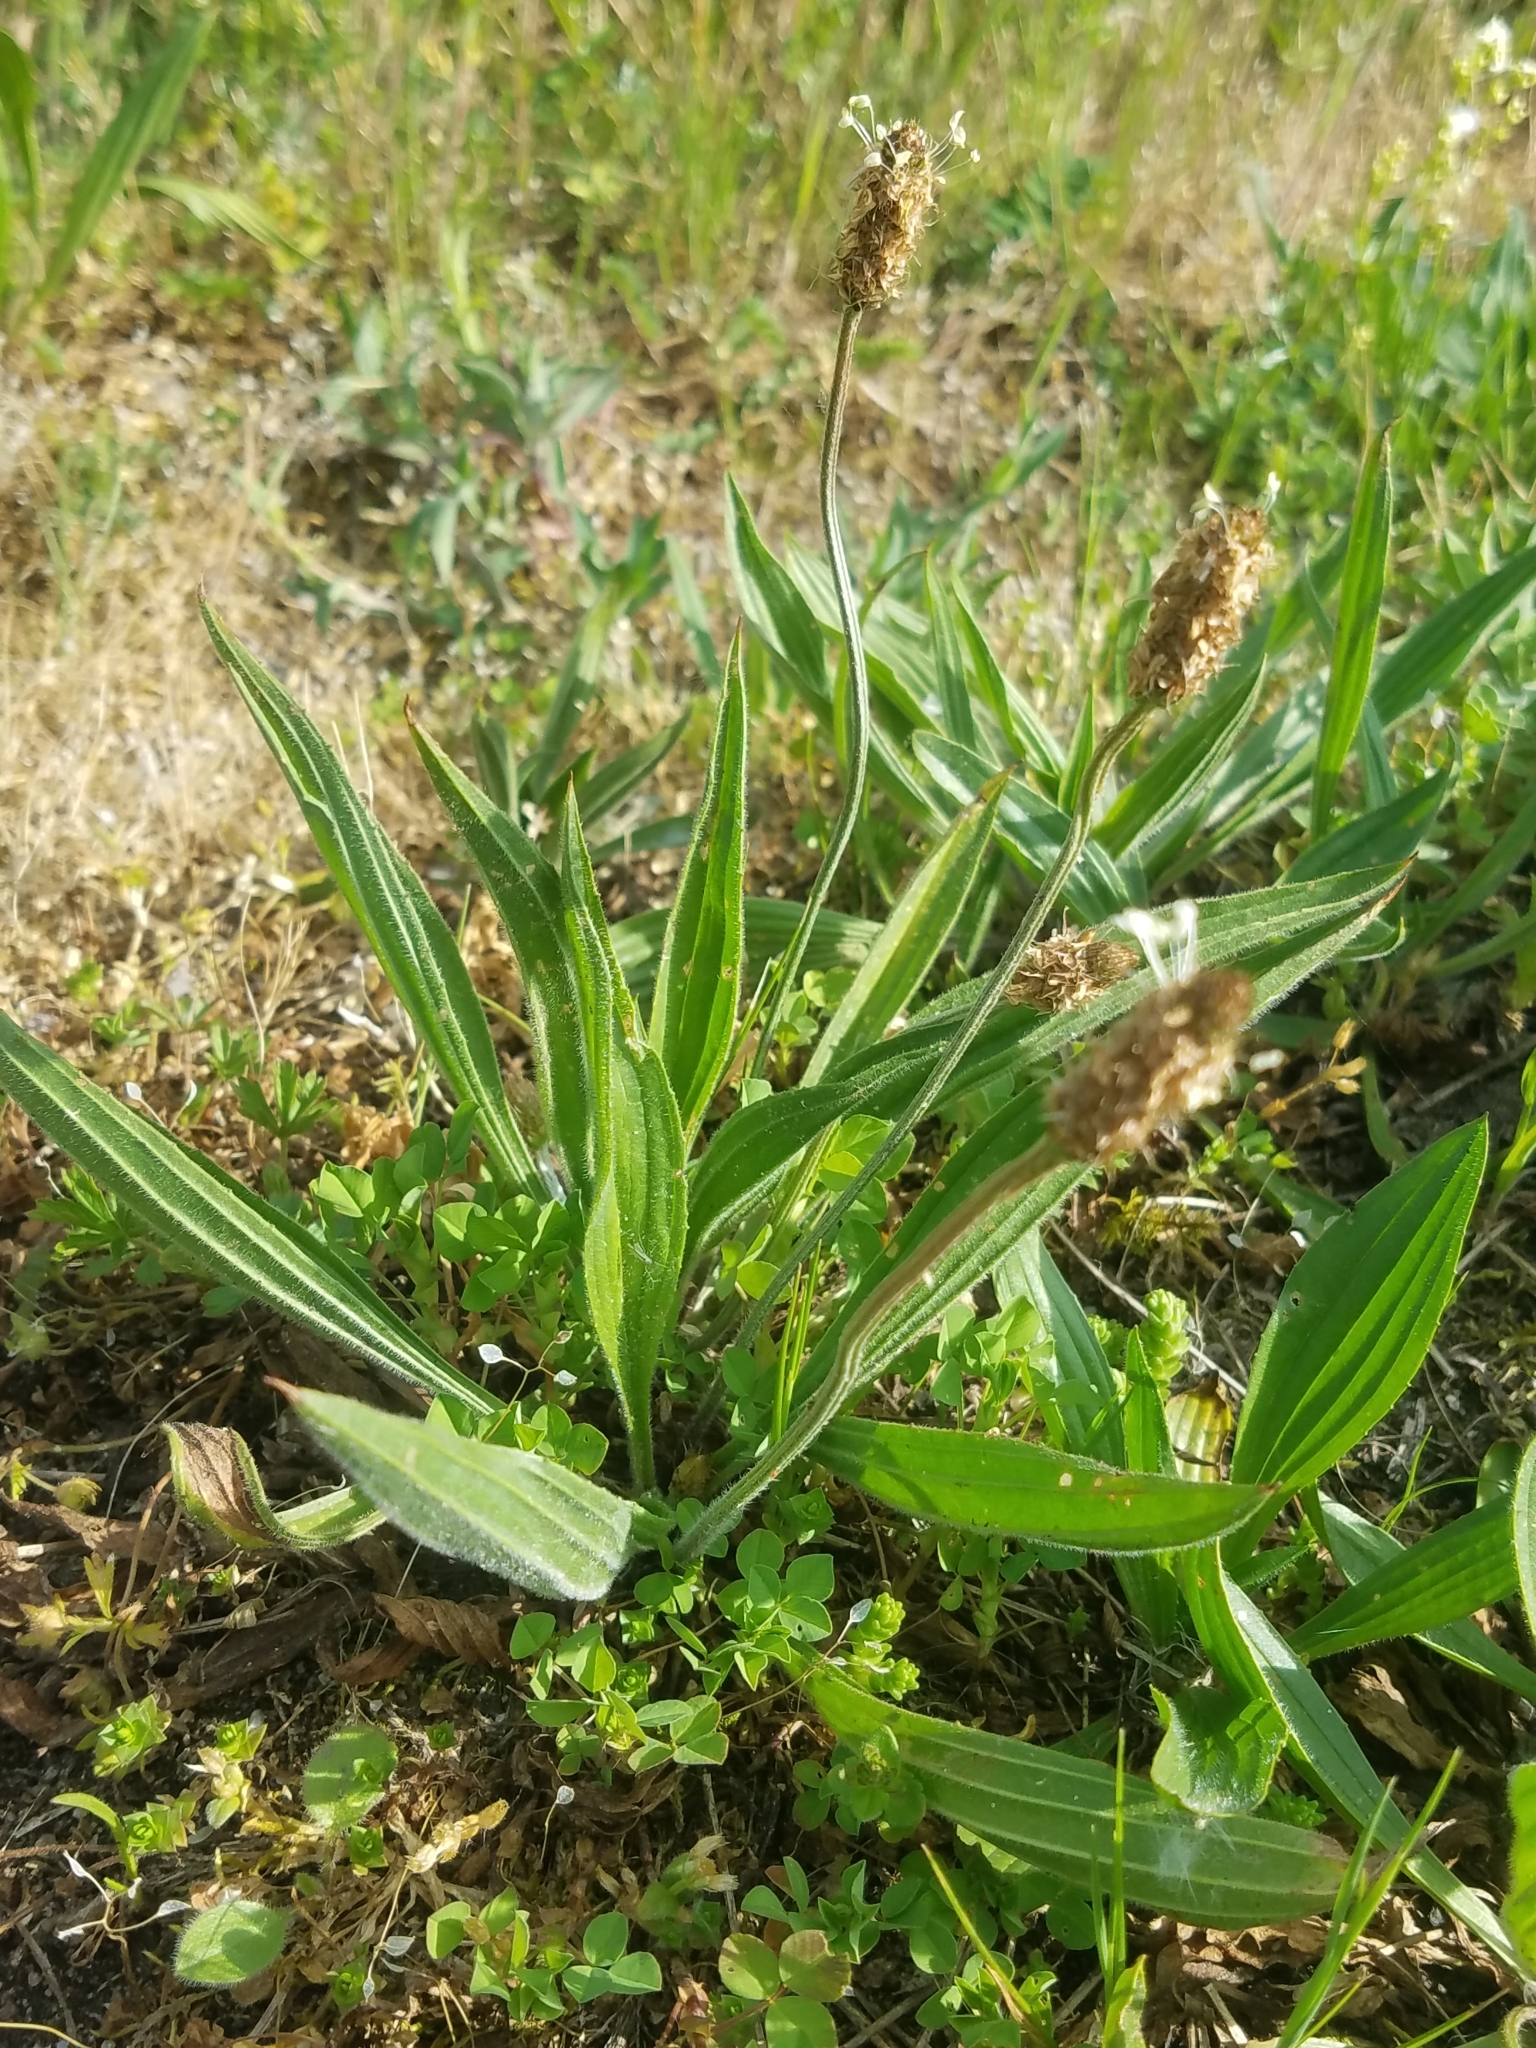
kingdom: Plantae
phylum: Tracheophyta
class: Magnoliopsida
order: Lamiales
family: Plantaginaceae
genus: Plantago
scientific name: Plantago lanceolata
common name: Ribwort plantain
